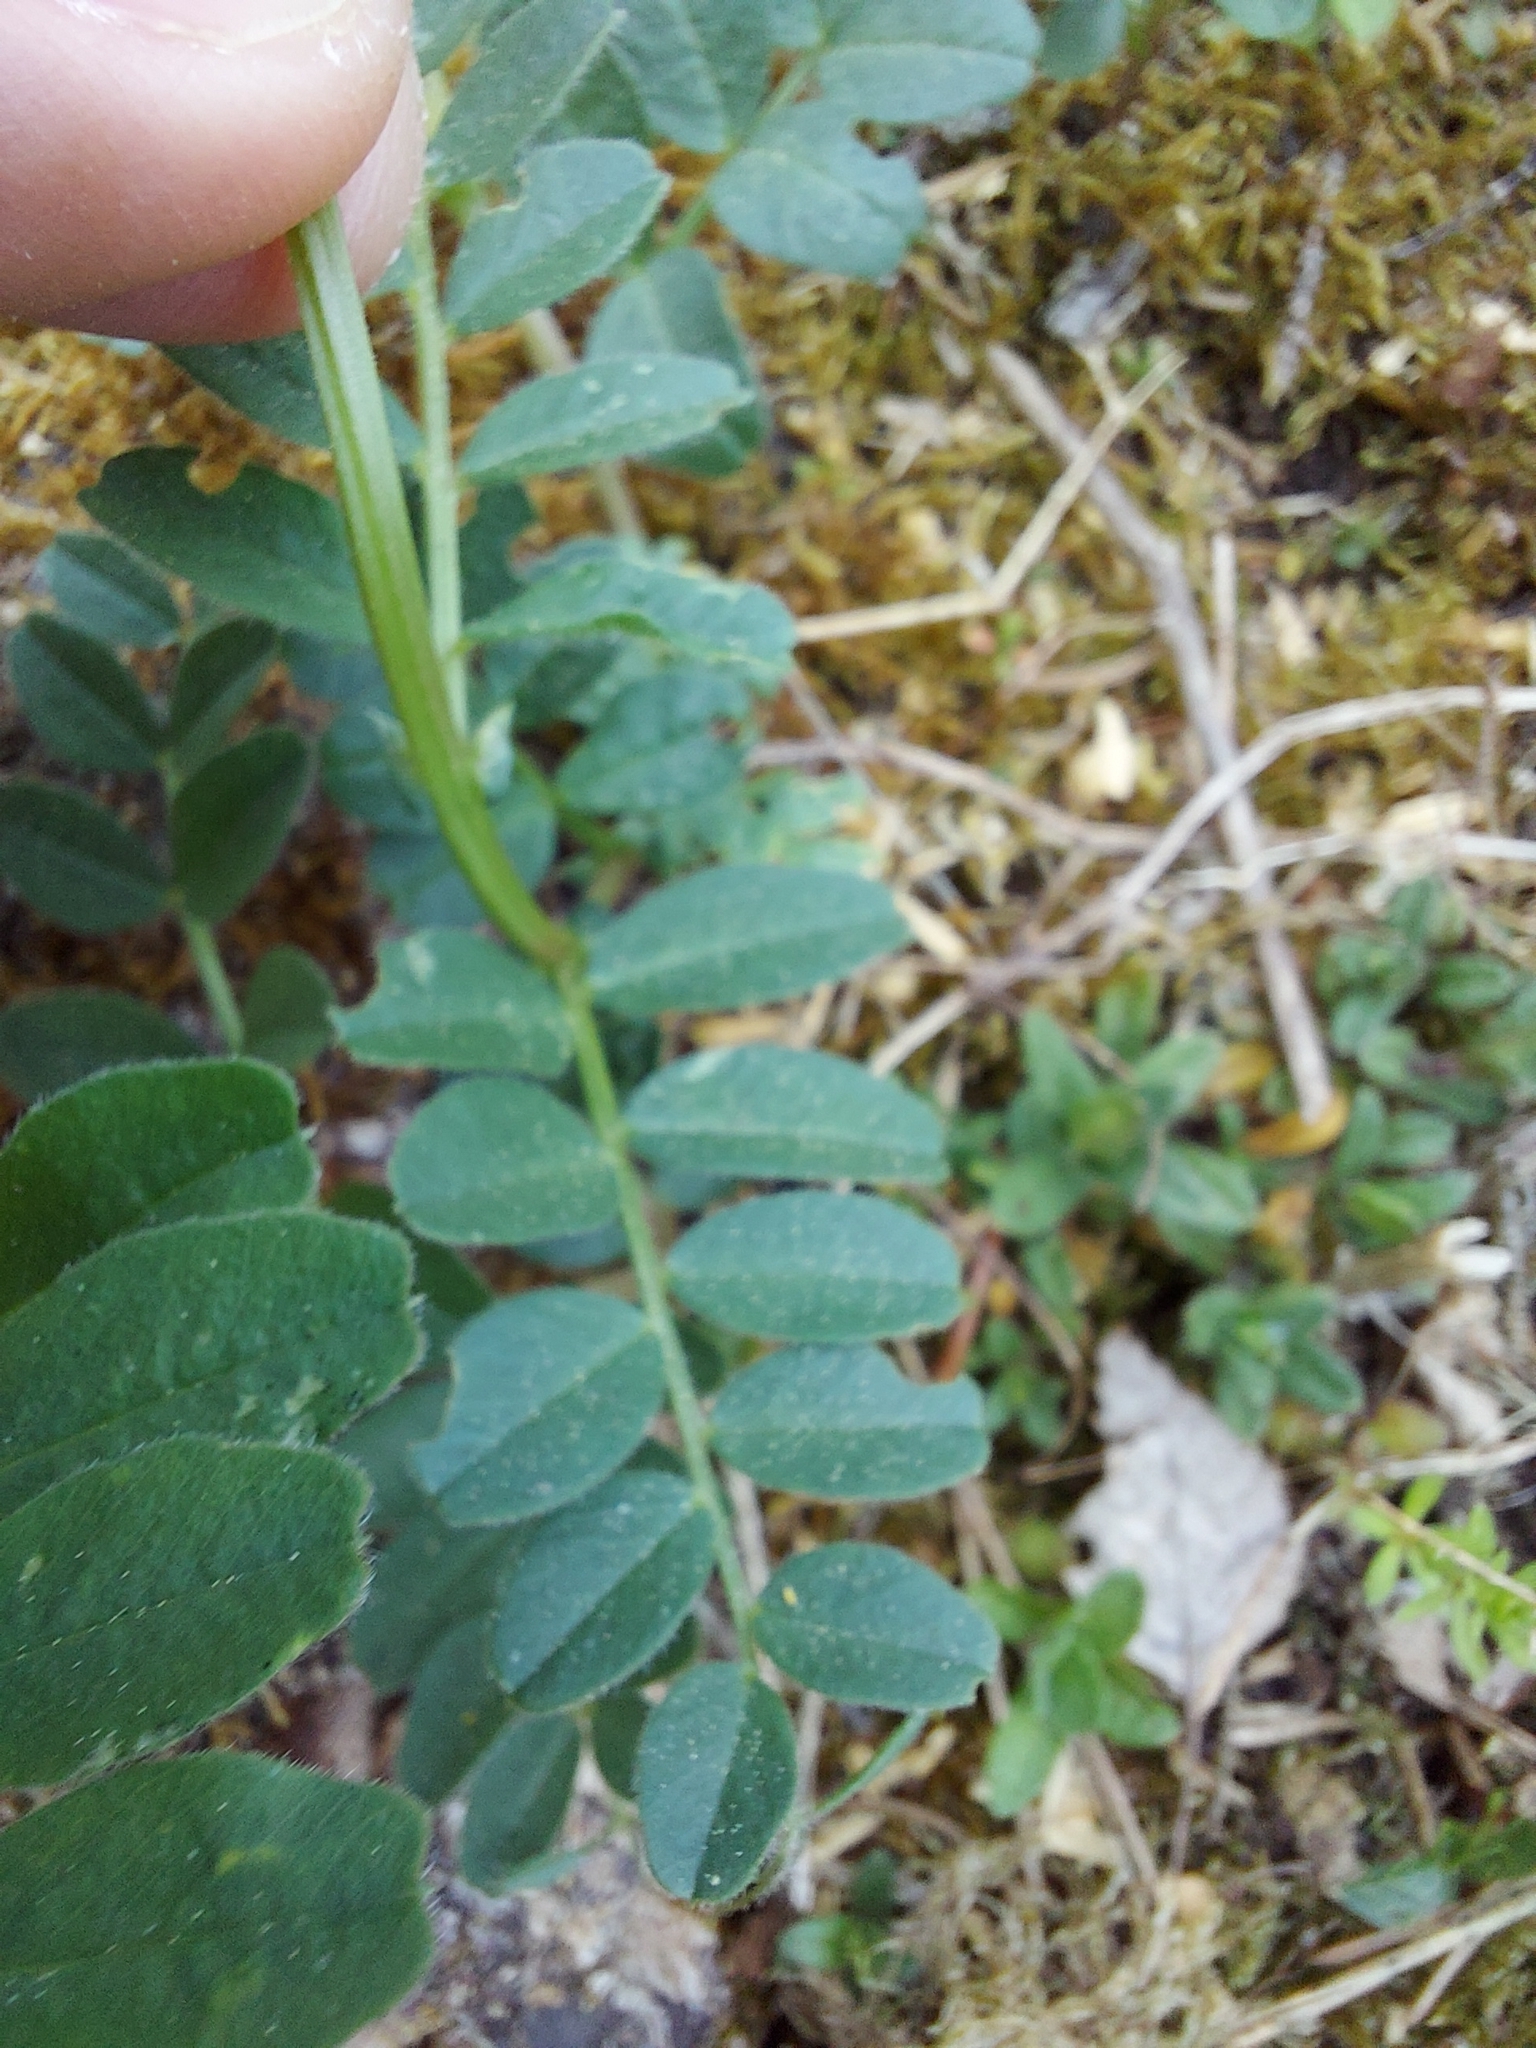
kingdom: Plantae
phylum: Tracheophyta
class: Magnoliopsida
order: Fabales
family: Fabaceae
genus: Vicia
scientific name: Vicia sepium
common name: Bush vetch
